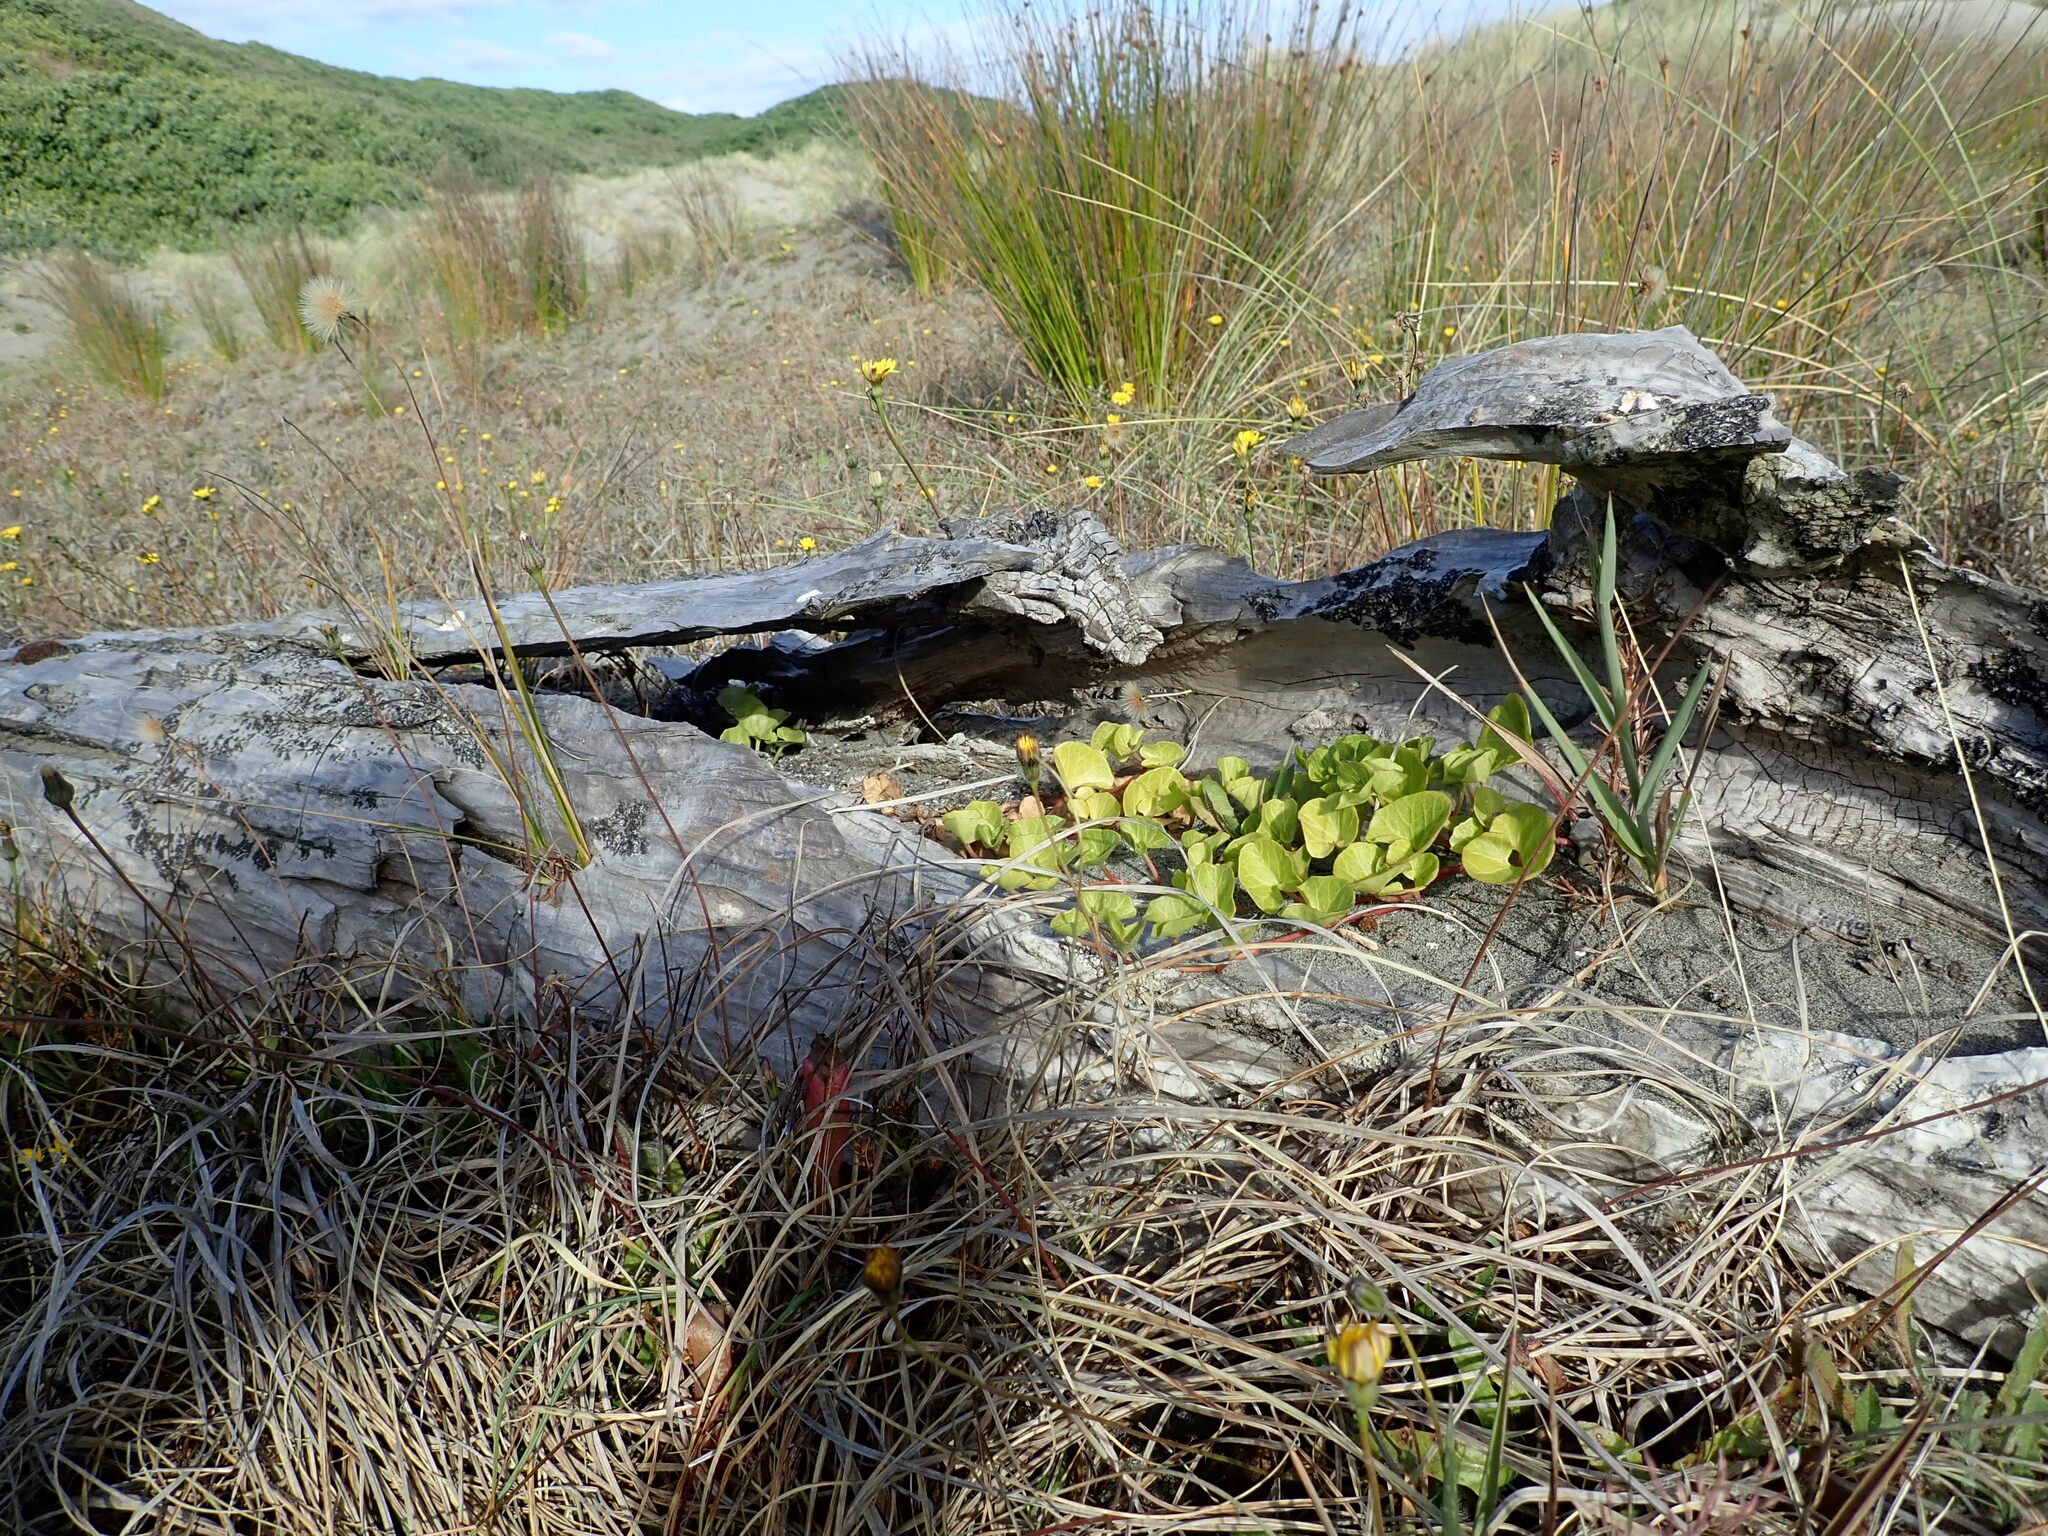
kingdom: Plantae
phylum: Tracheophyta
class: Magnoliopsida
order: Solanales
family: Convolvulaceae
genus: Calystegia
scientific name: Calystegia soldanella
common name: Sea bindweed
